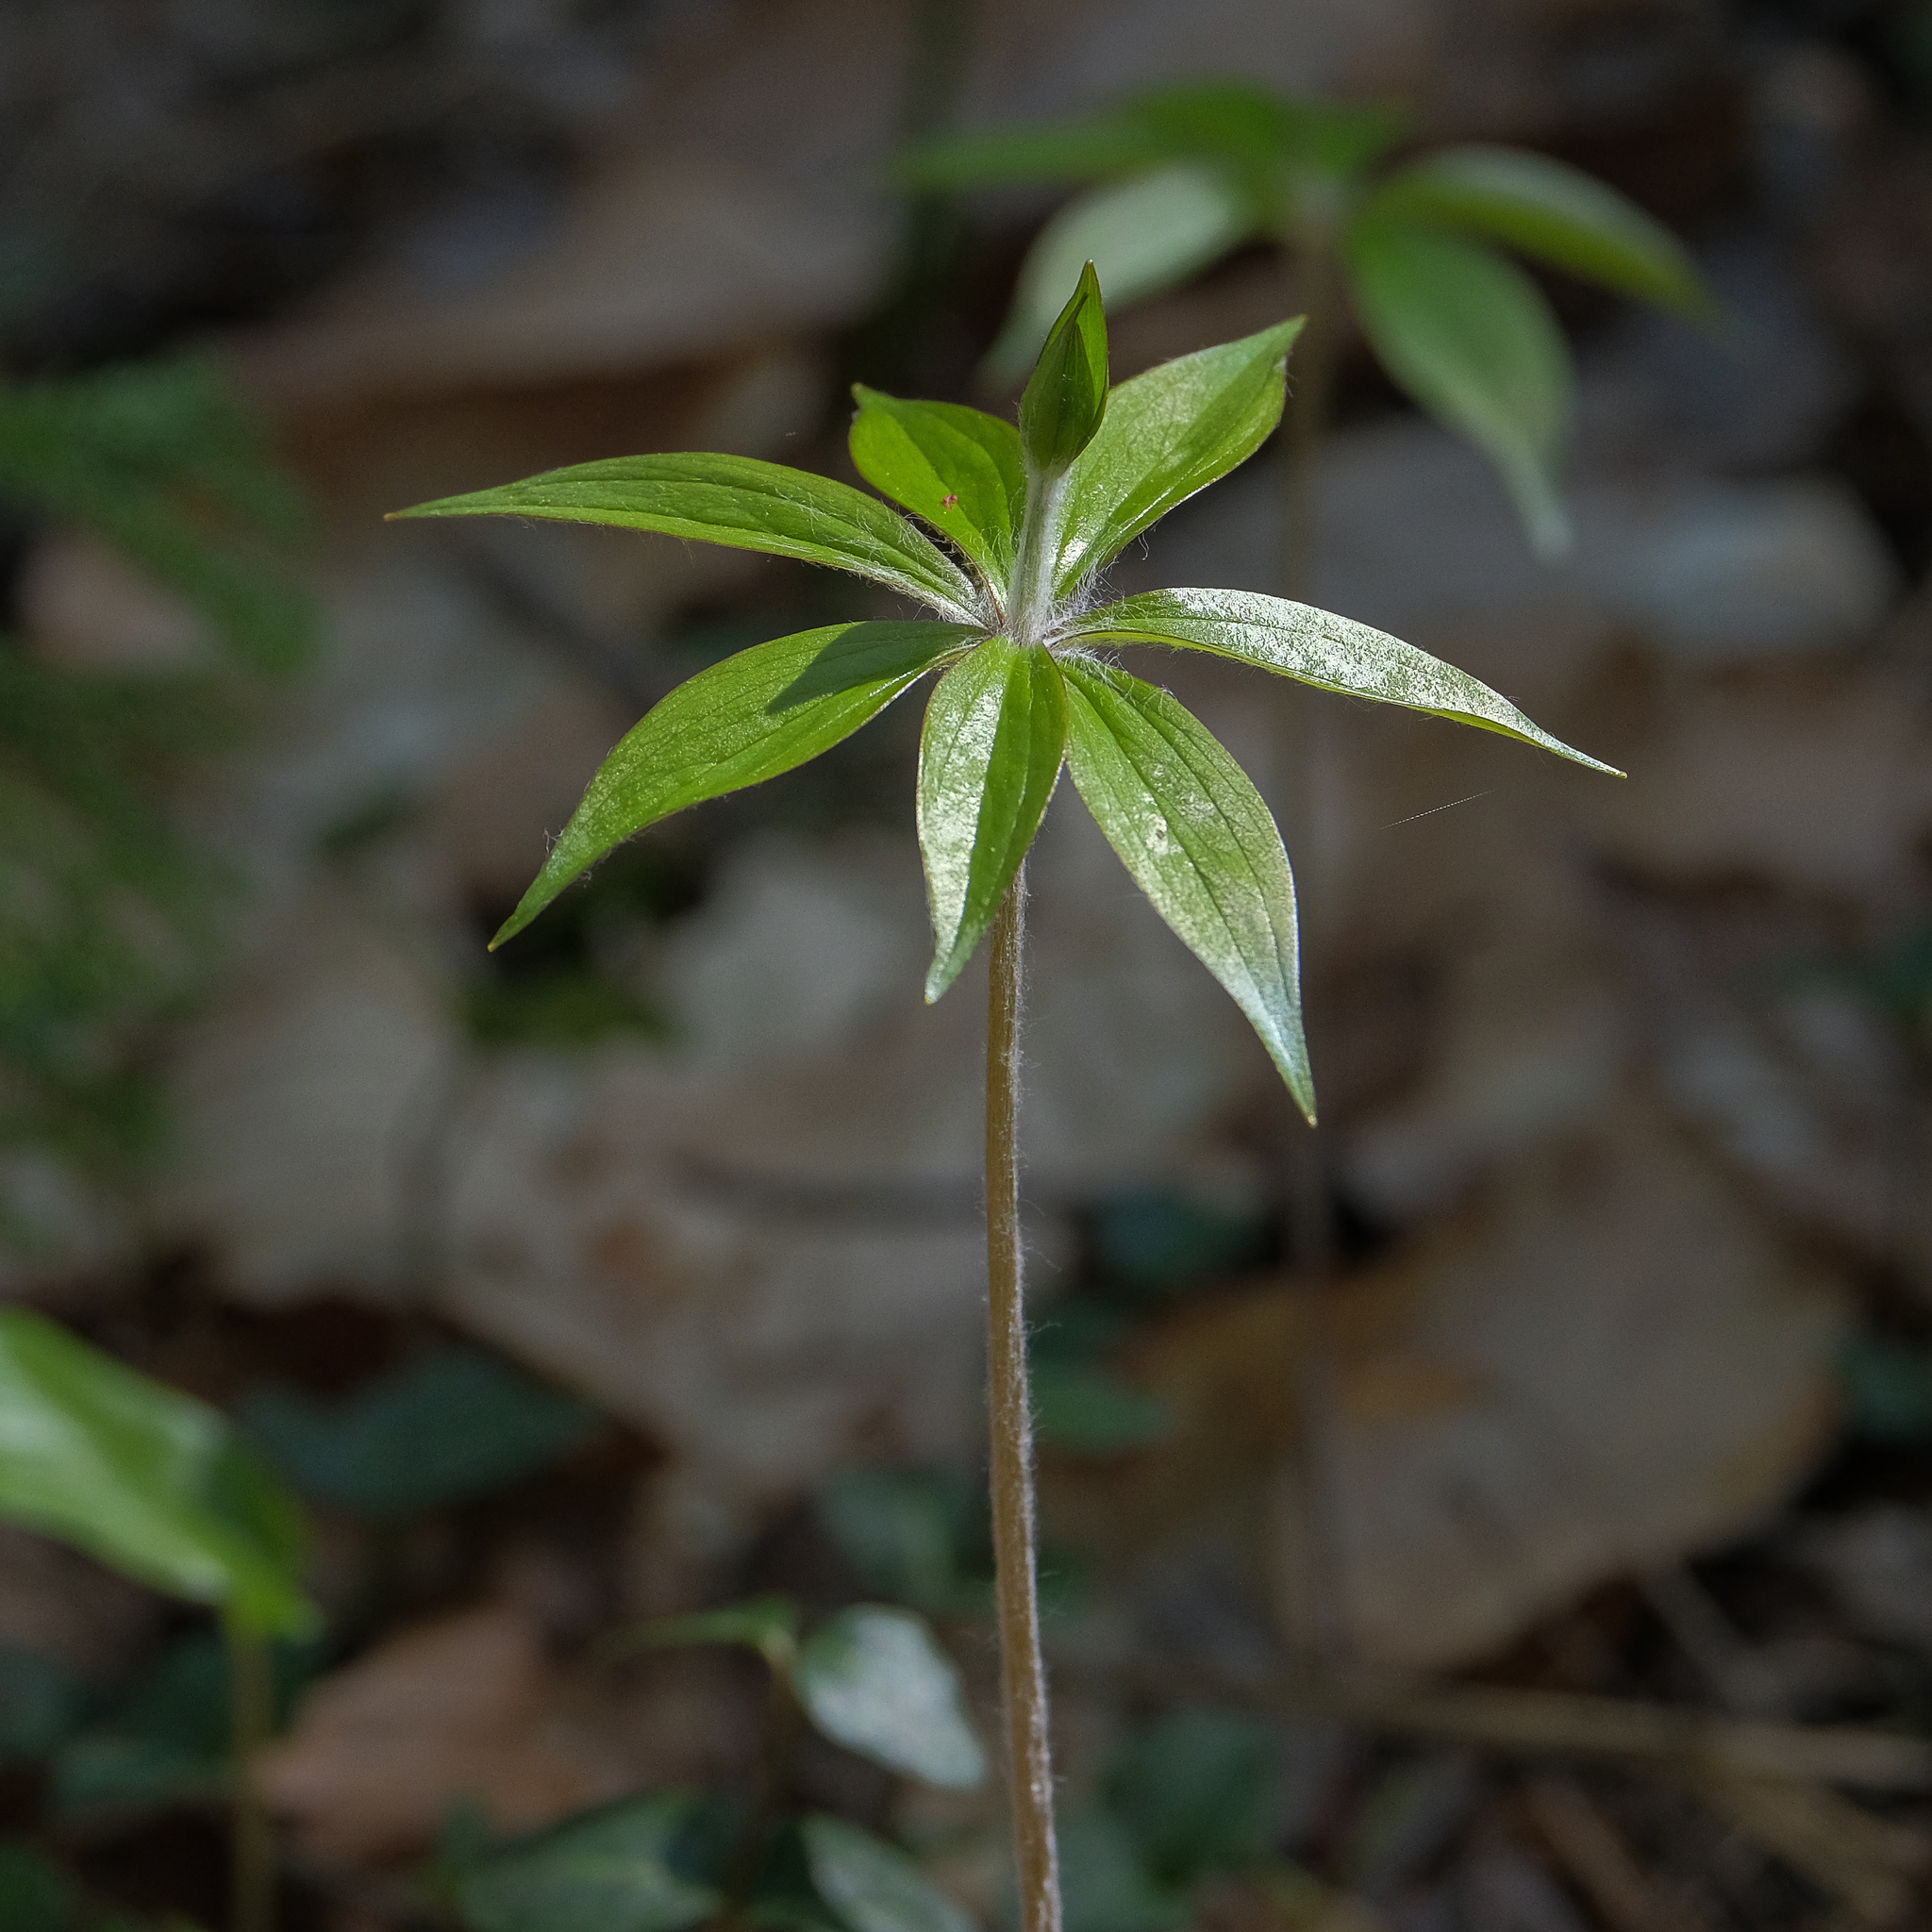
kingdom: Plantae
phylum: Tracheophyta
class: Magnoliopsida
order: Ericales
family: Primulaceae
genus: Lysimachia
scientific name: Lysimachia borealis
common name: American starflower
